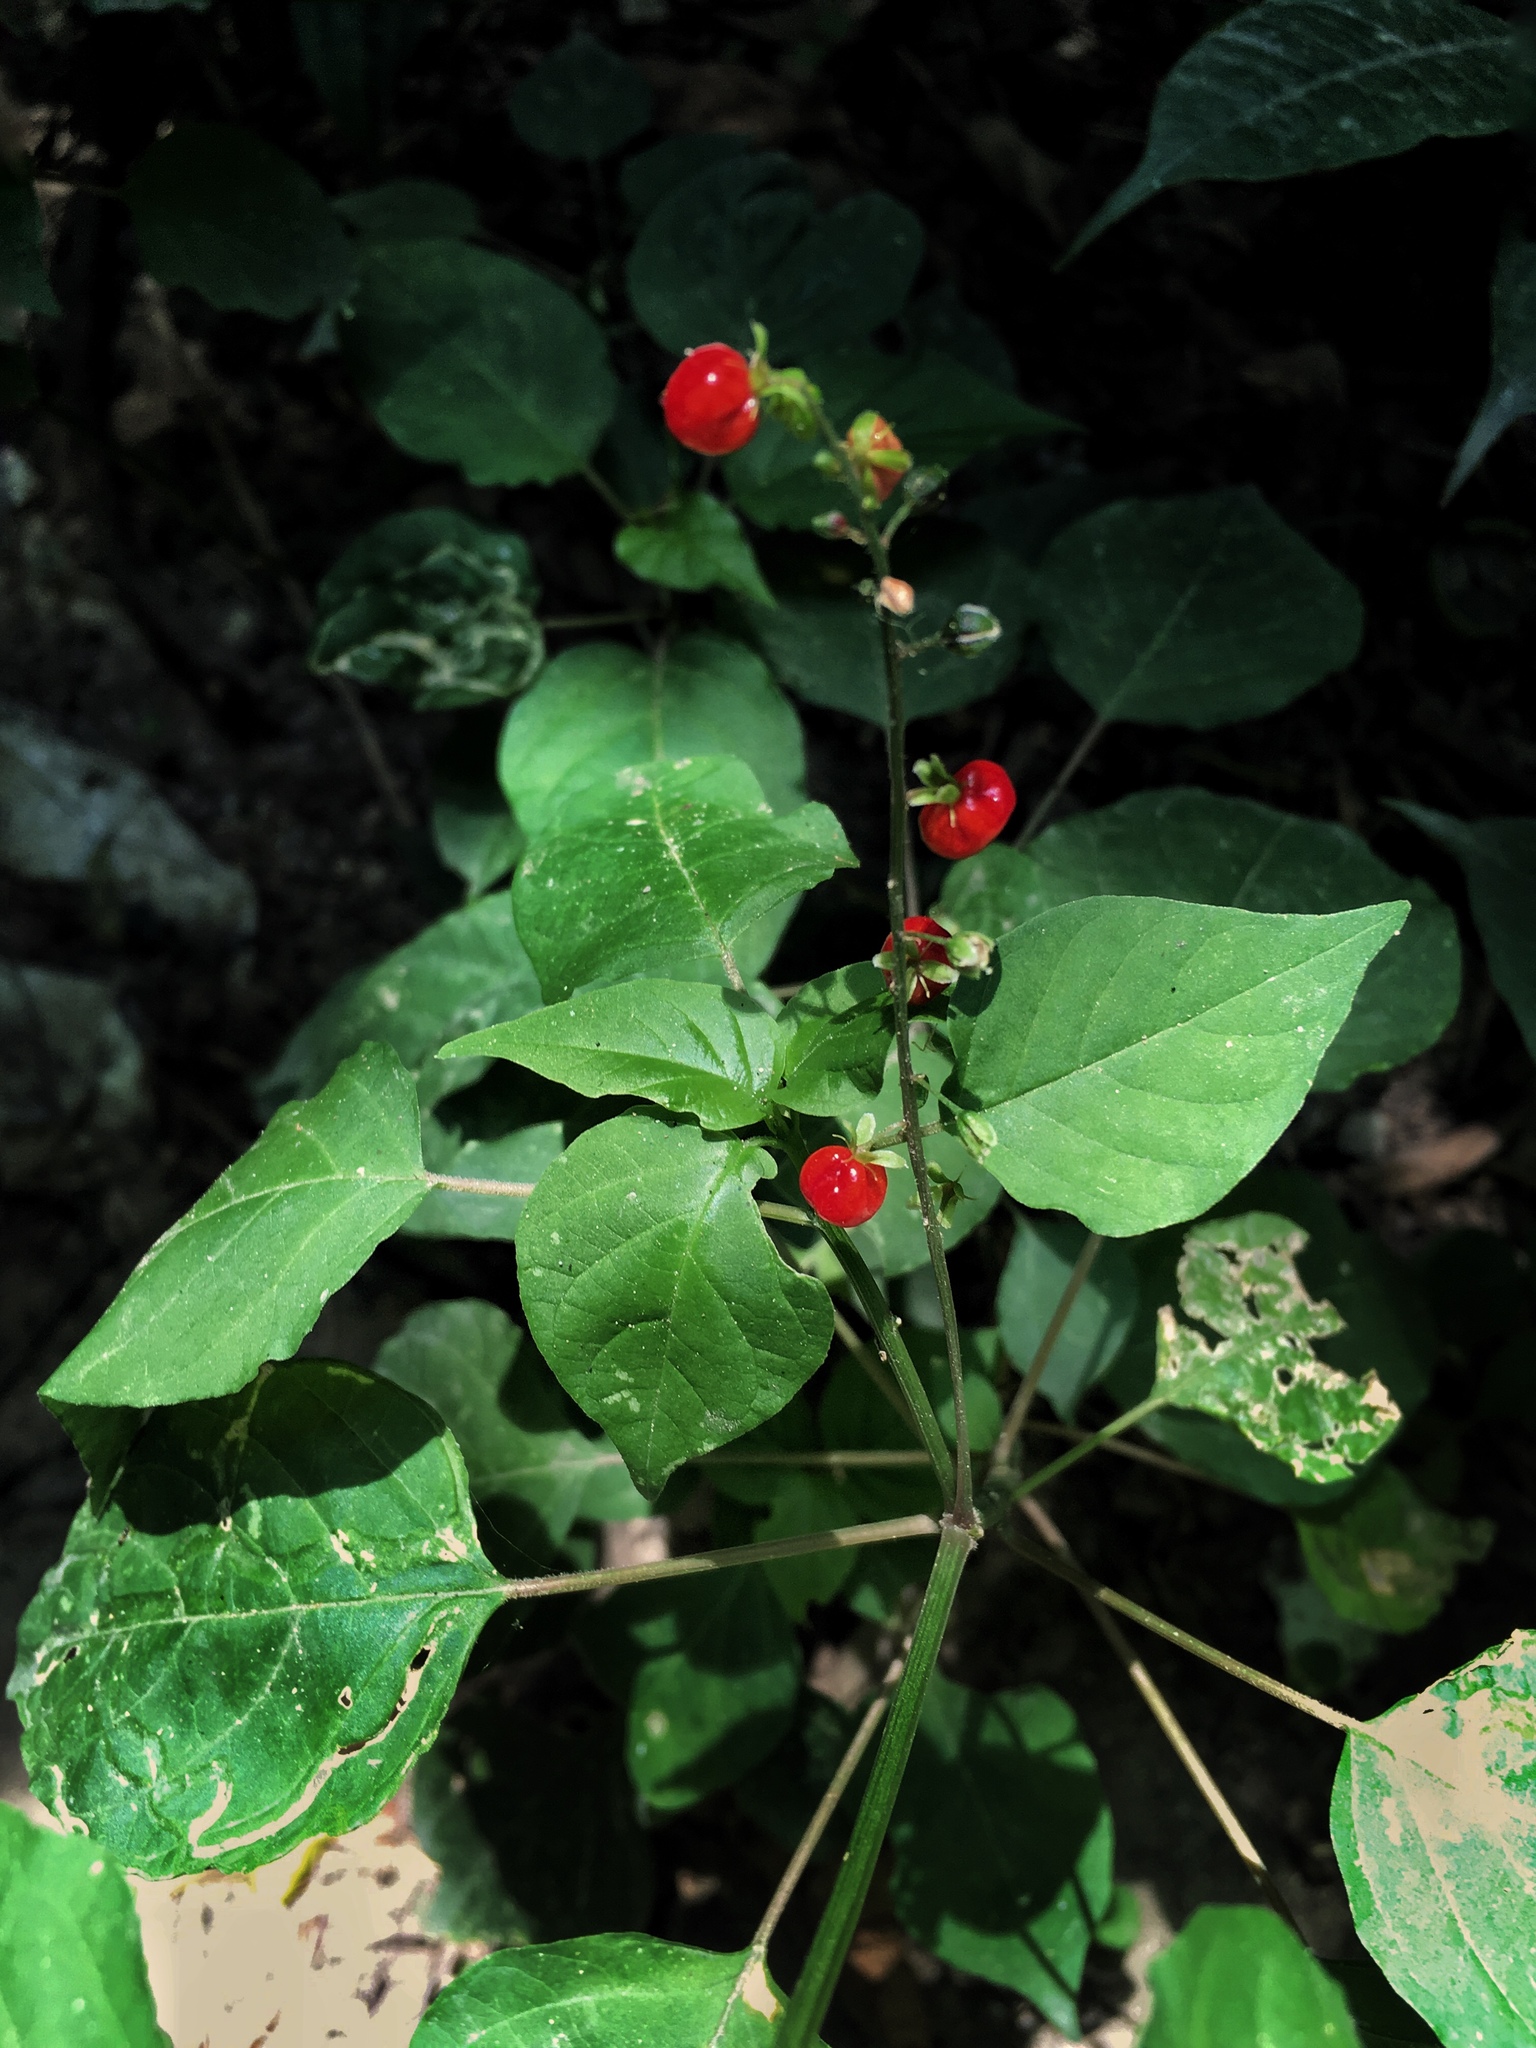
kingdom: Plantae
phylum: Tracheophyta
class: Magnoliopsida
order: Caryophyllales
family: Phytolaccaceae
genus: Rivina
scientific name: Rivina humilis
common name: Rougeplant
